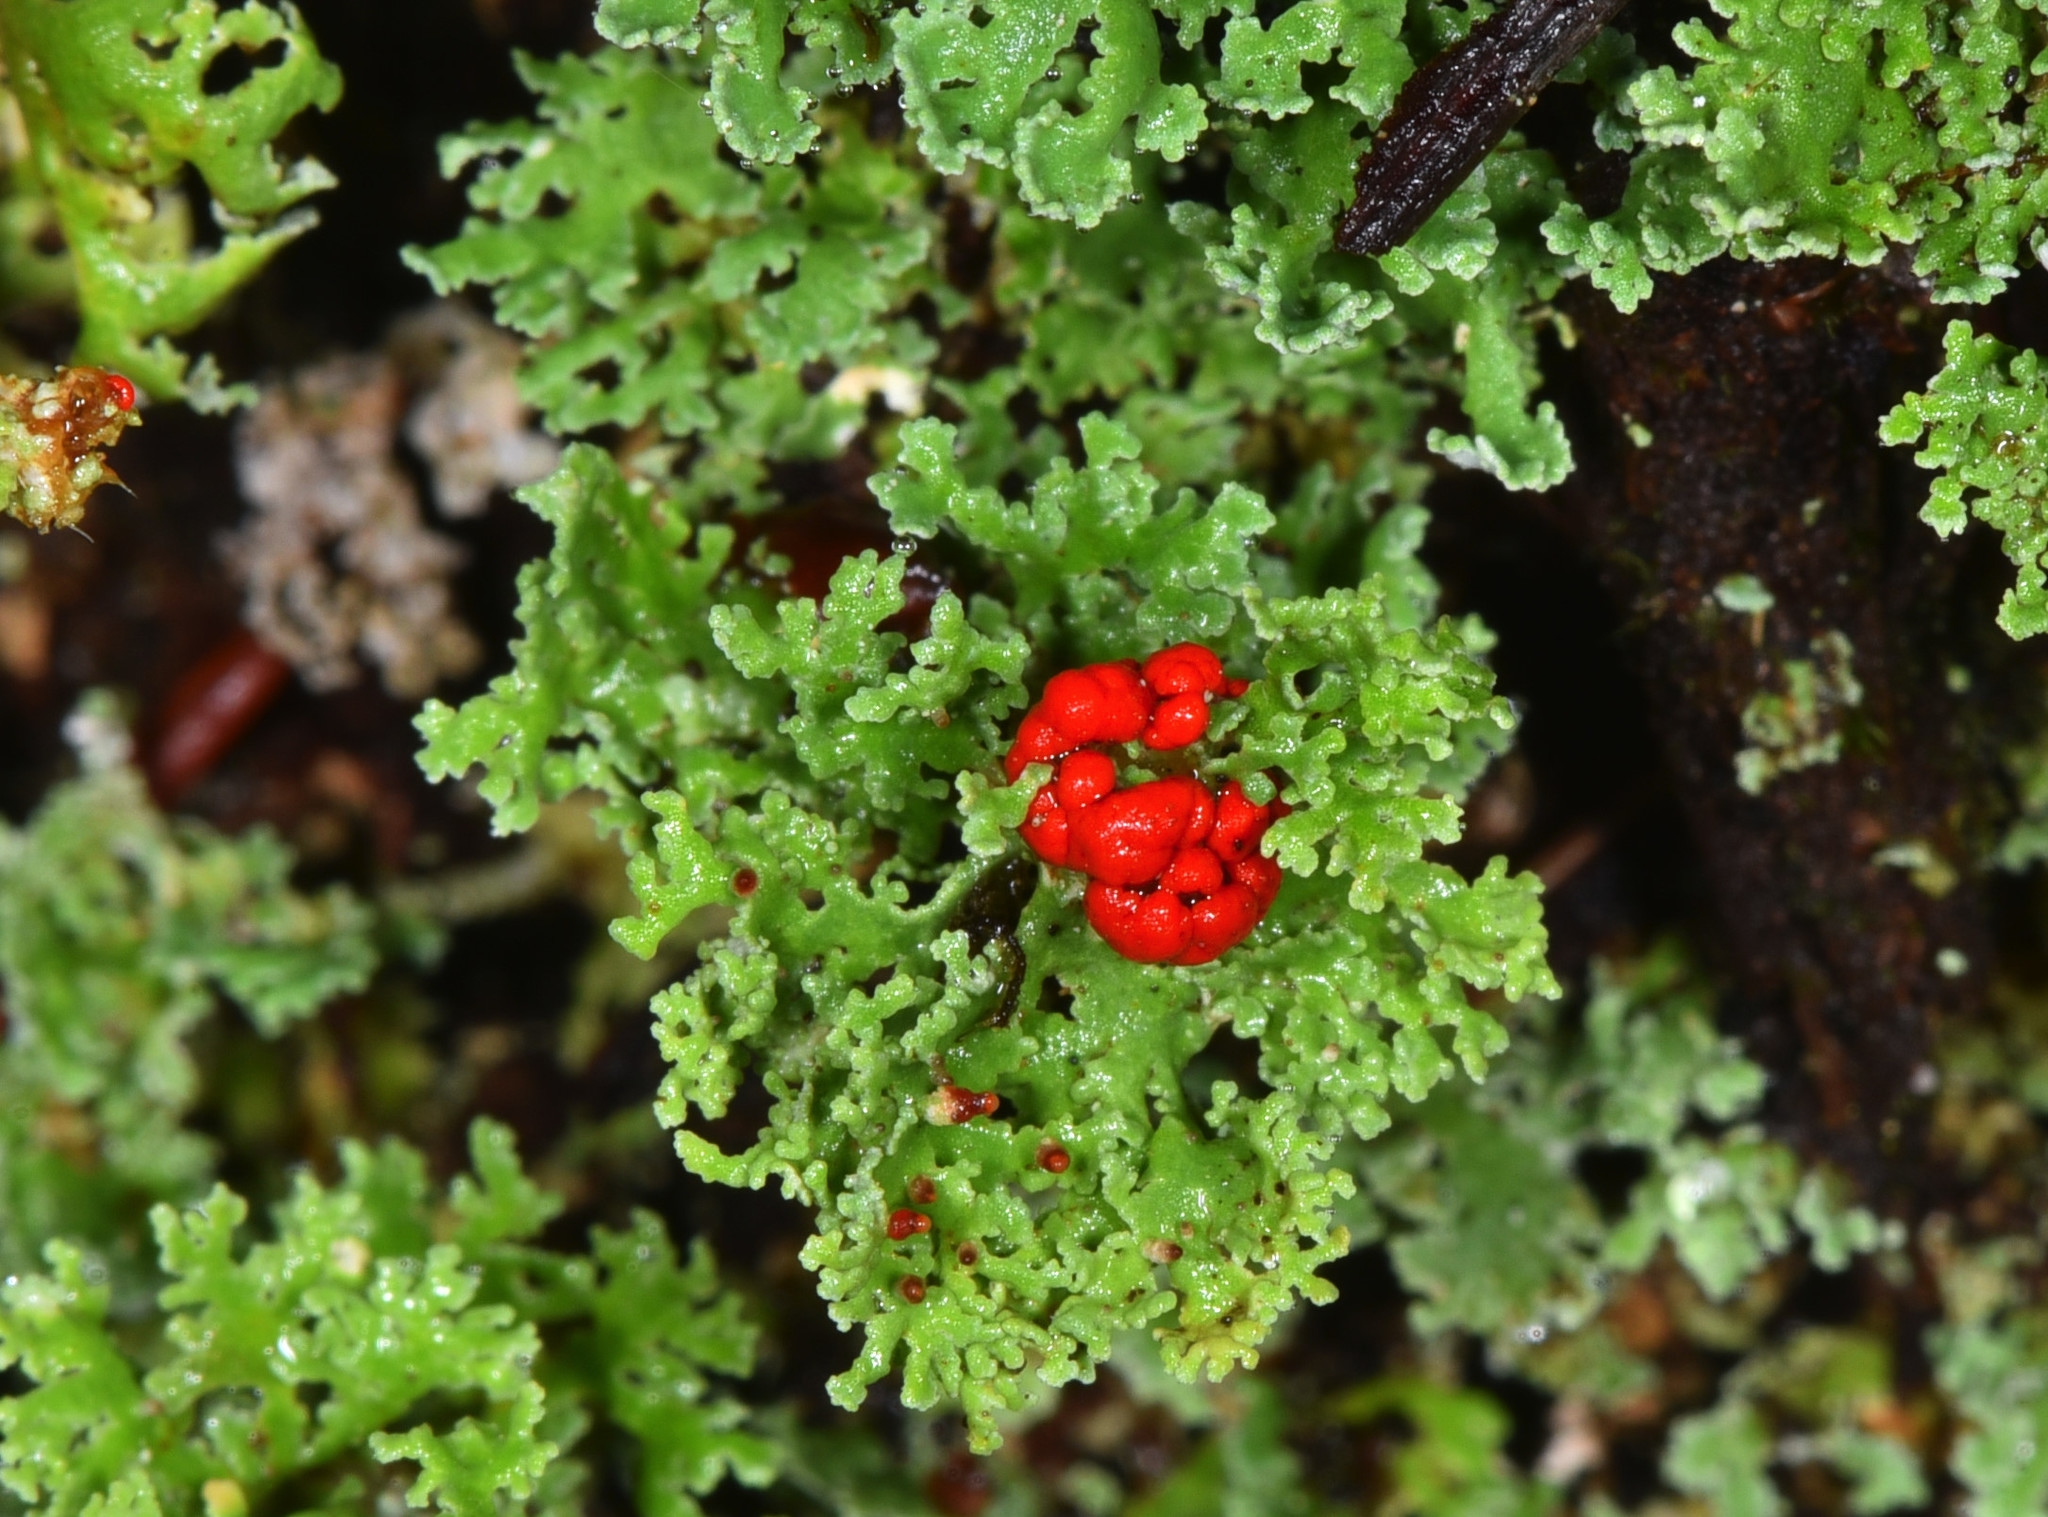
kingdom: Fungi
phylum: Ascomycota
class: Lecanoromycetes
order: Lecanorales
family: Cladoniaceae
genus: Cladonia
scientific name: Cladonia bellidiflora
